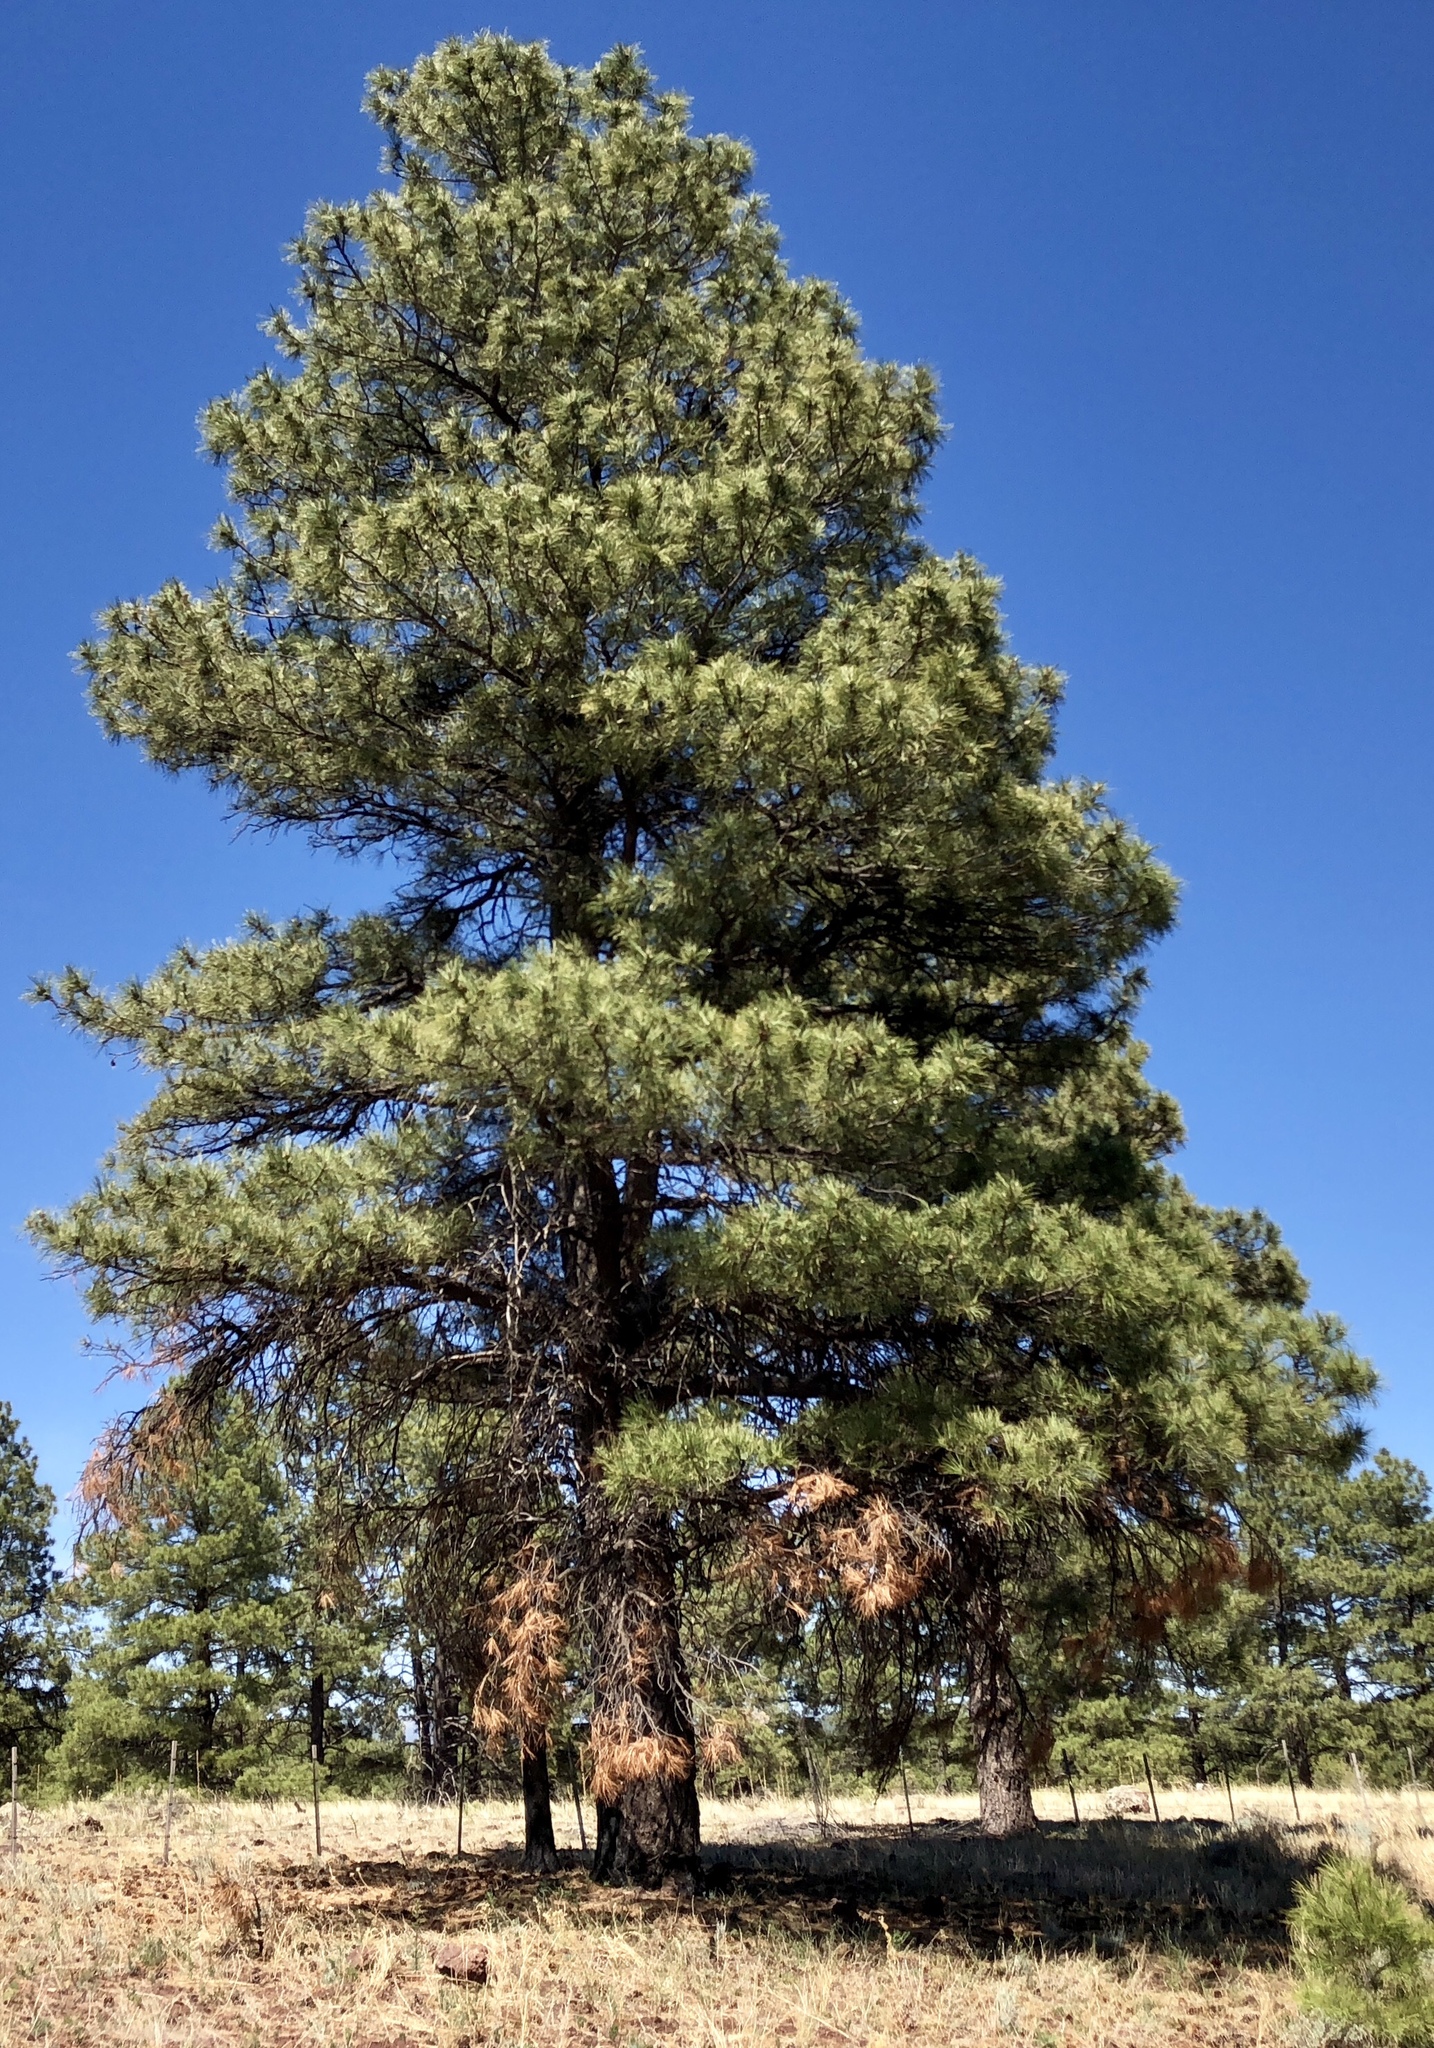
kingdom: Plantae
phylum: Tracheophyta
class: Pinopsida
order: Pinales
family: Pinaceae
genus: Pinus
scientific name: Pinus ponderosa
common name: Western yellow-pine
